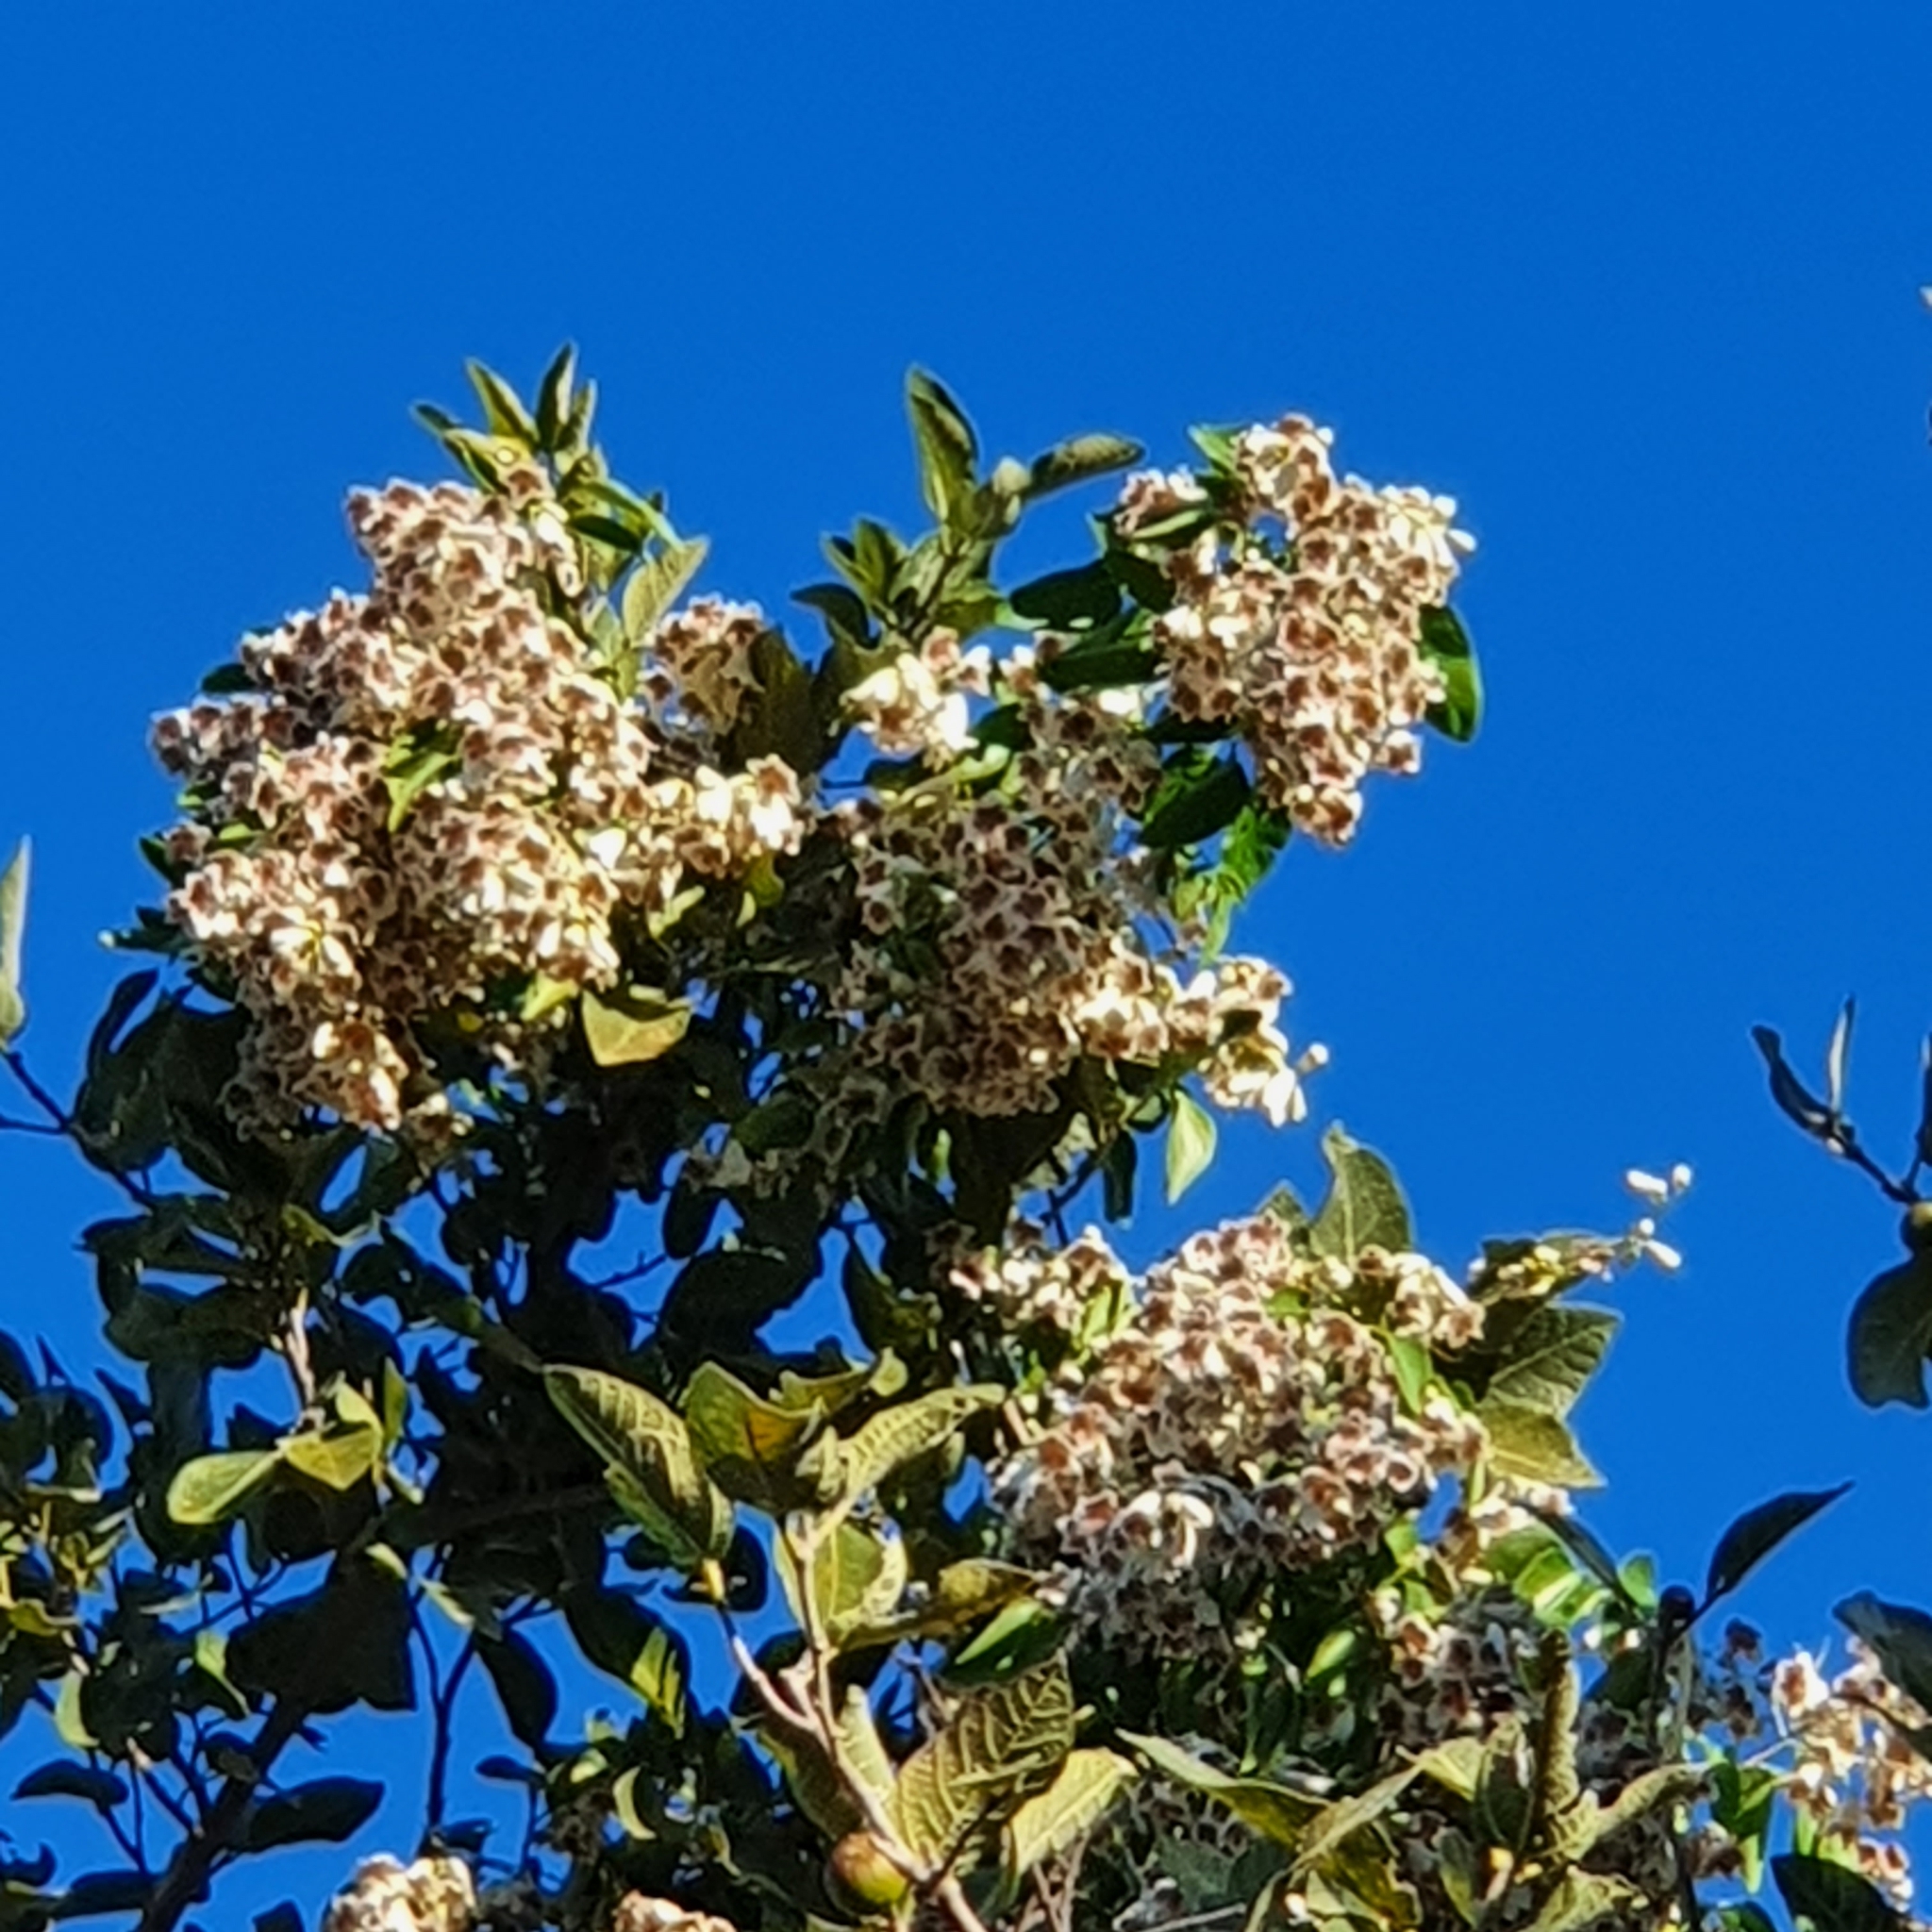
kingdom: Plantae
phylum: Tracheophyta
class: Magnoliopsida
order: Lamiales
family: Bignoniaceae
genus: Pandorea
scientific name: Pandorea pandorana
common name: Wonga-wonga-vine
